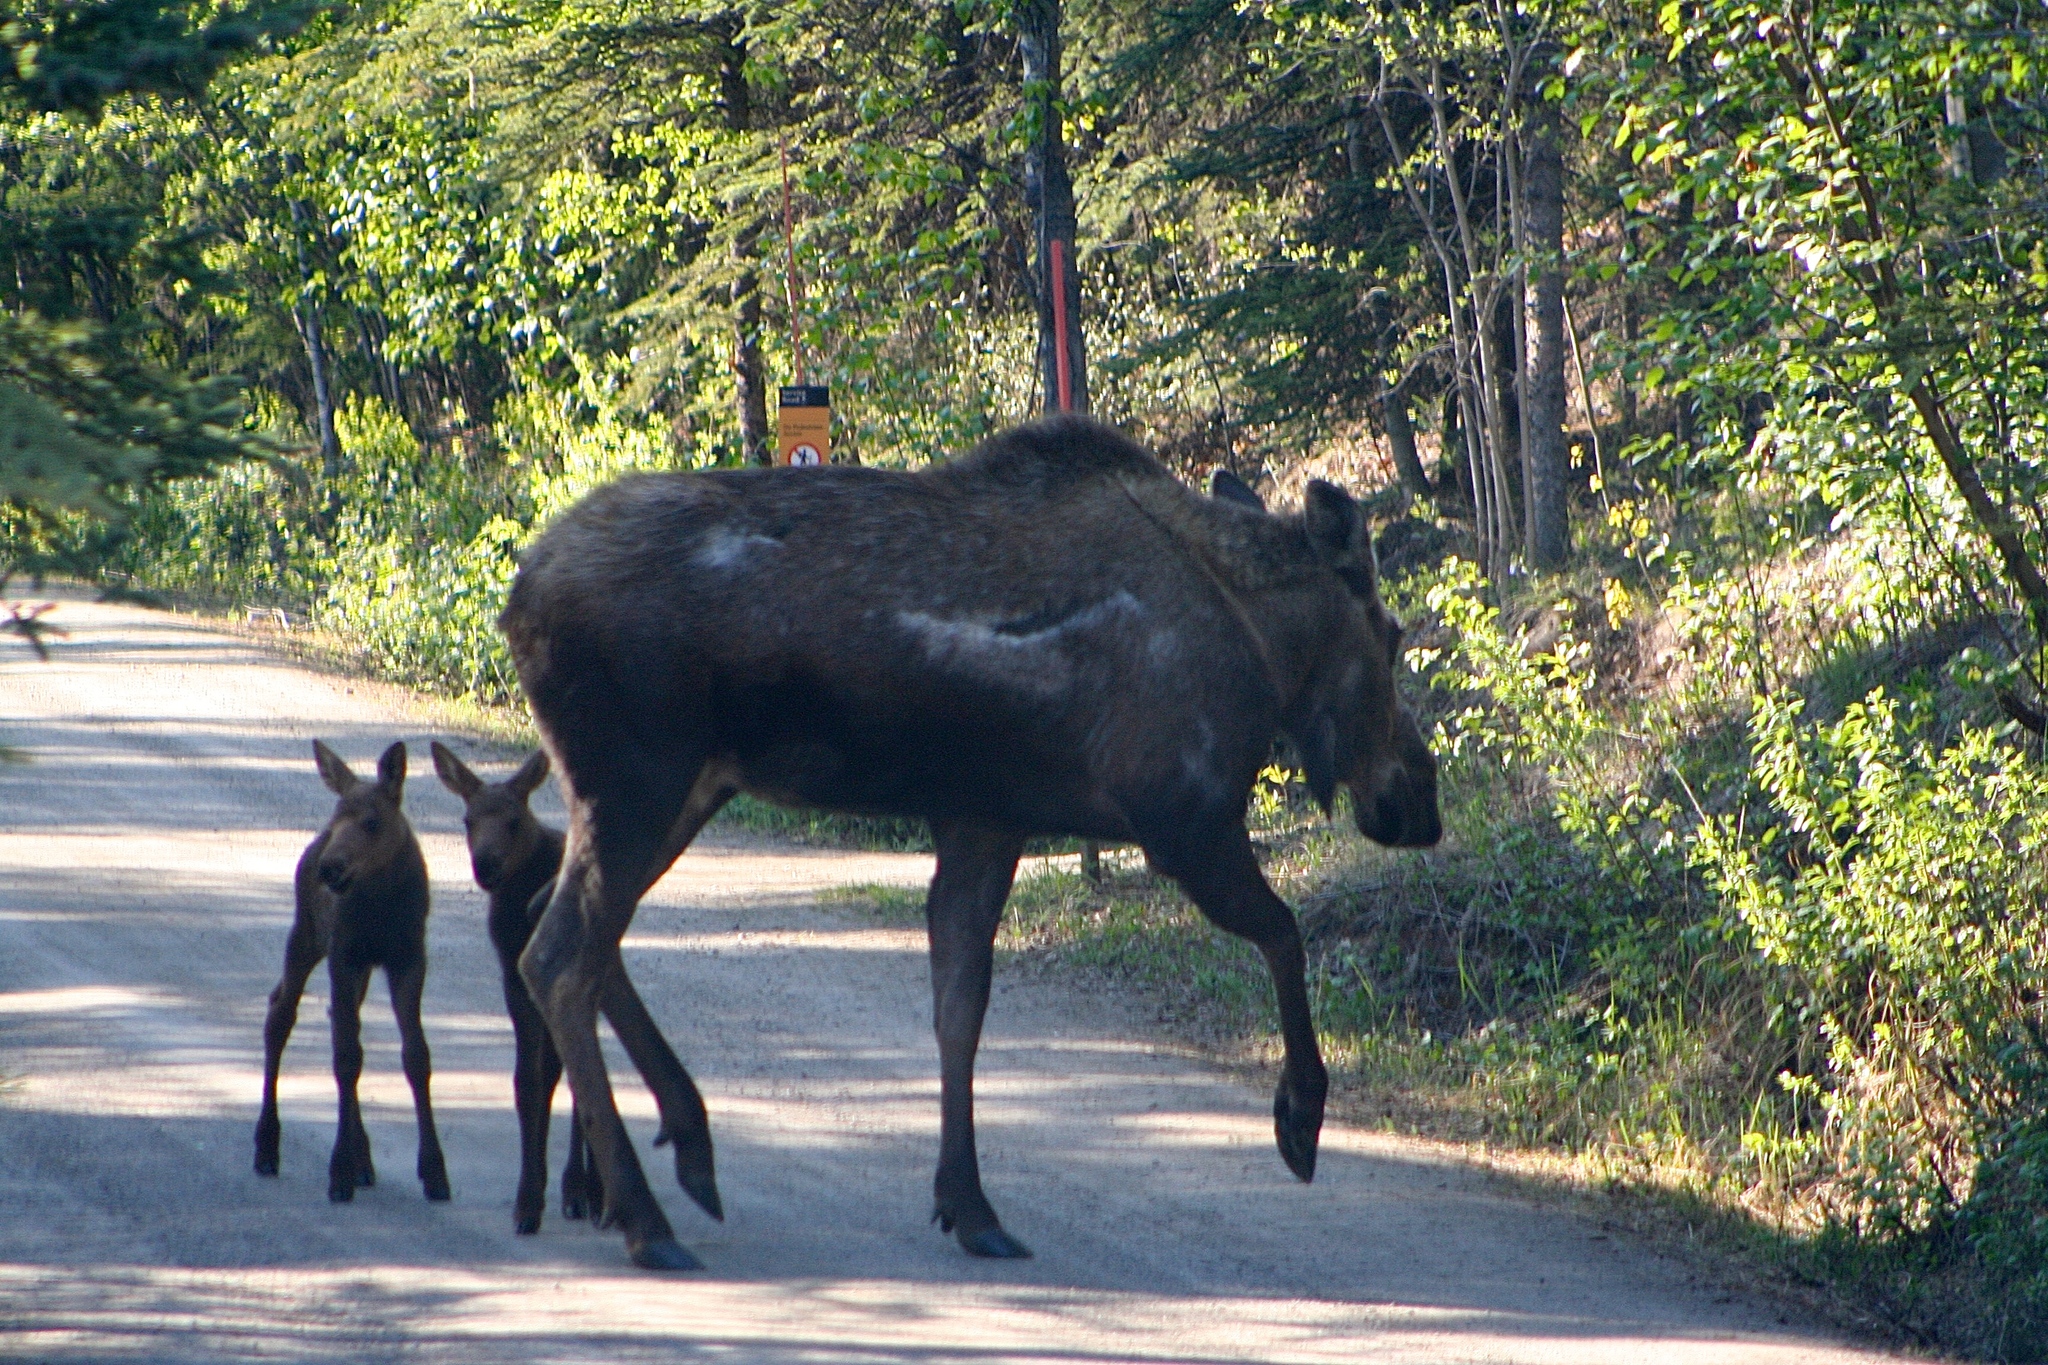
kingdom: Animalia
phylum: Chordata
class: Mammalia
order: Artiodactyla
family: Cervidae
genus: Alces
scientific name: Alces alces
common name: Moose
